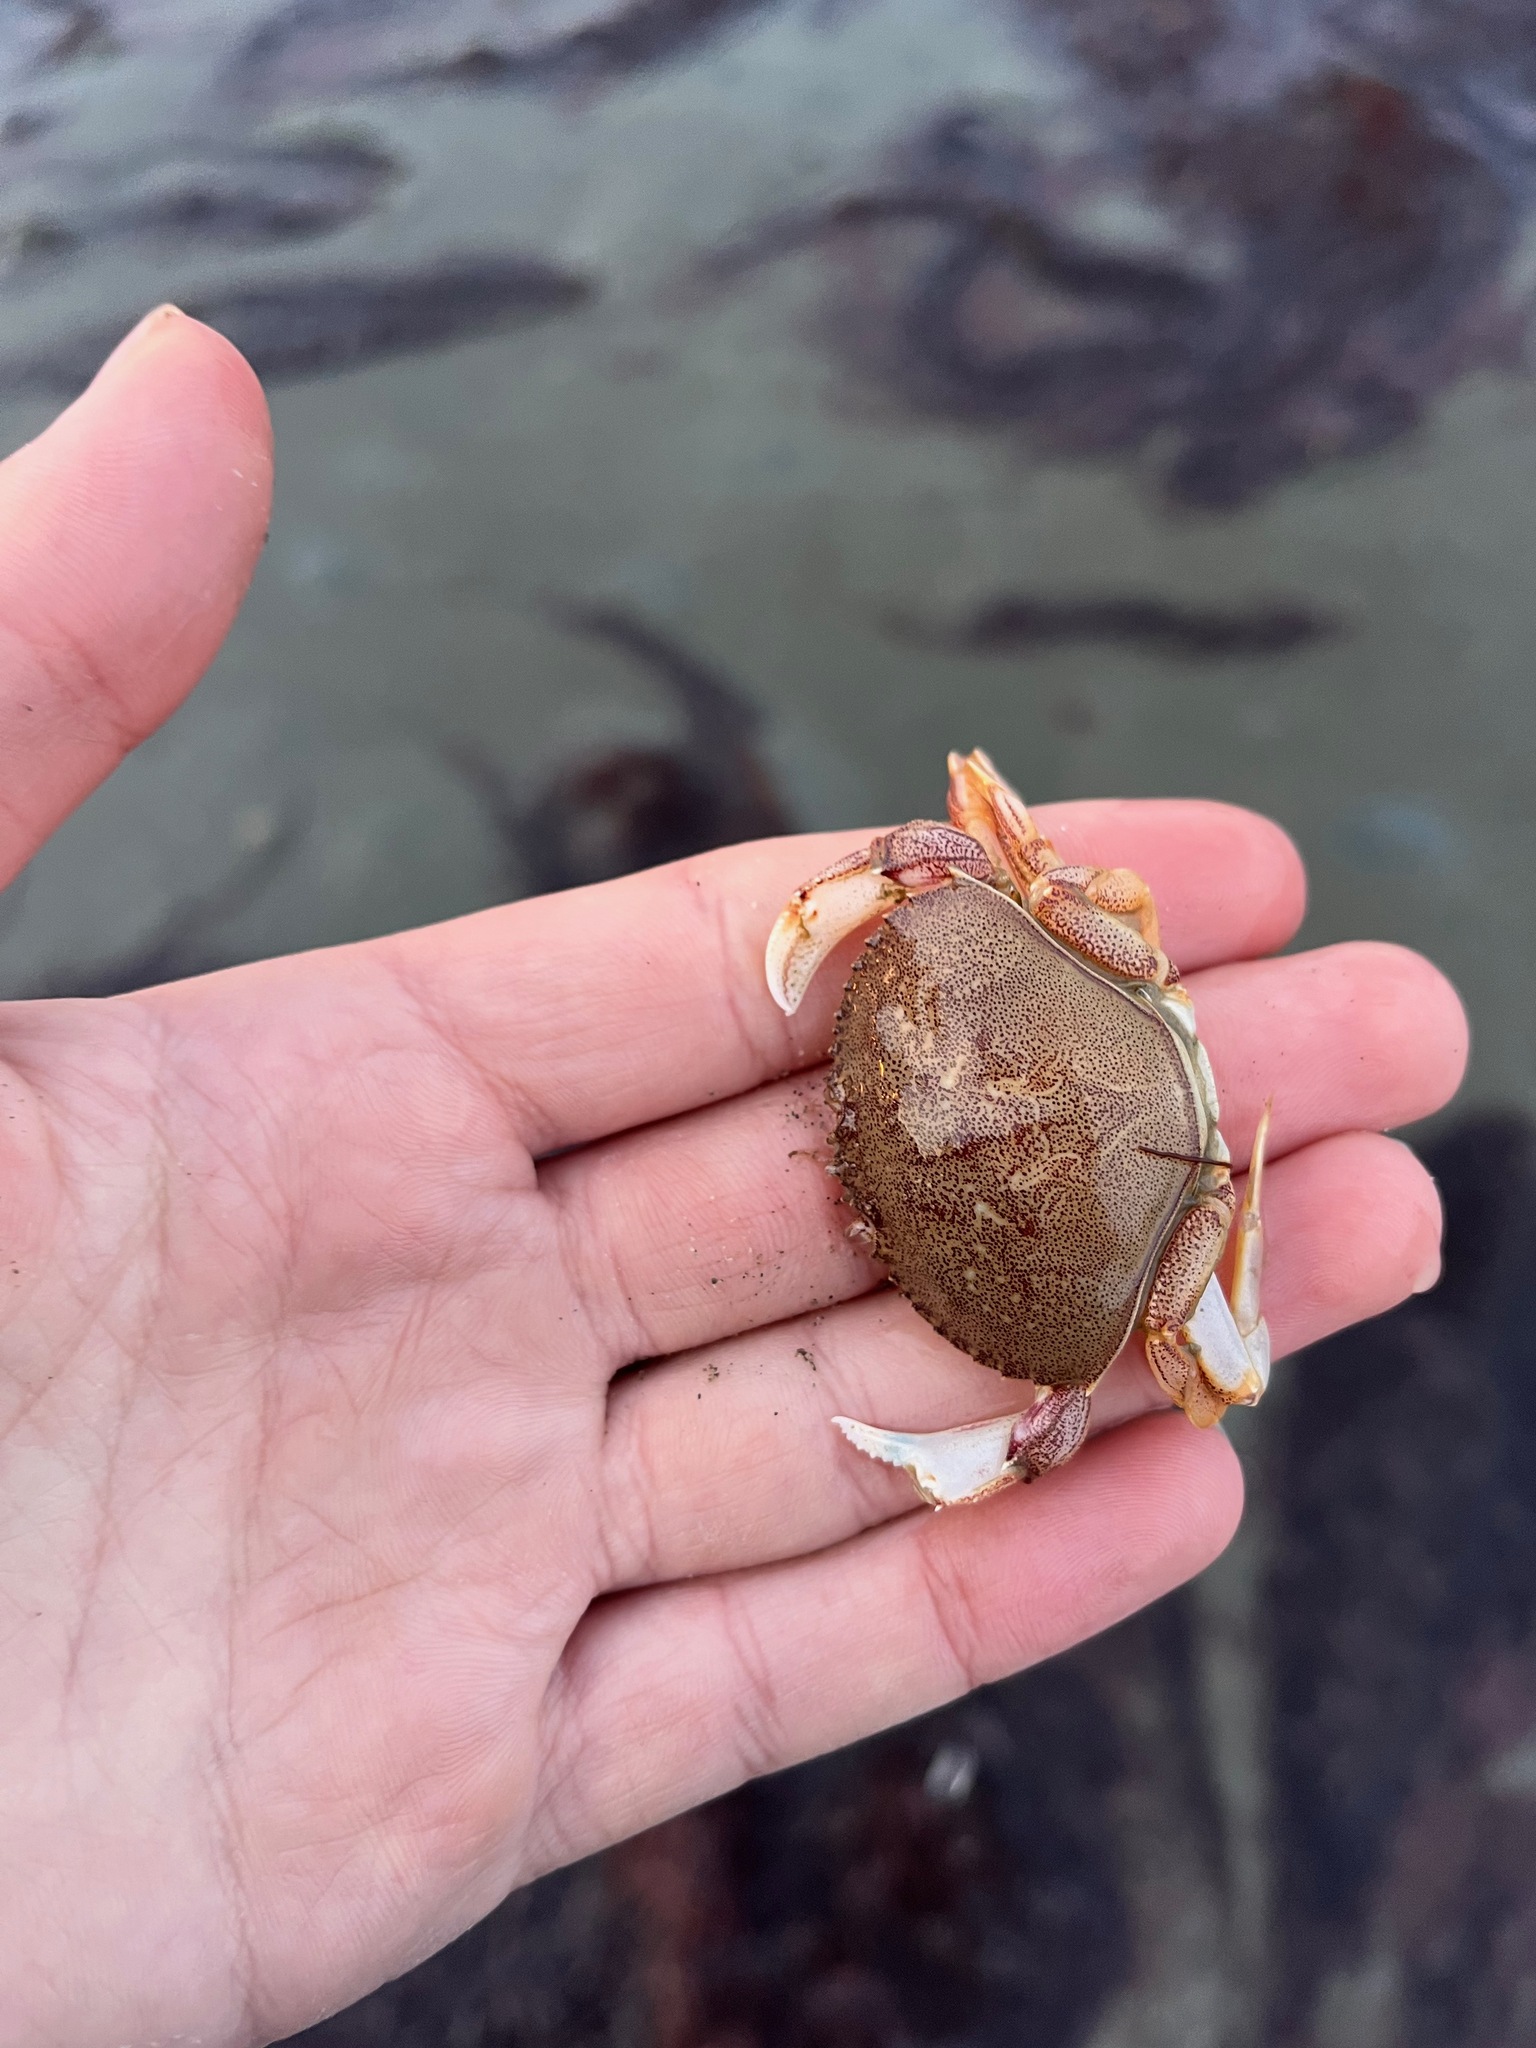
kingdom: Animalia
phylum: Arthropoda
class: Malacostraca
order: Decapoda
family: Cancridae
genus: Metacarcinus
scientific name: Metacarcinus magister
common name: Californian crab
